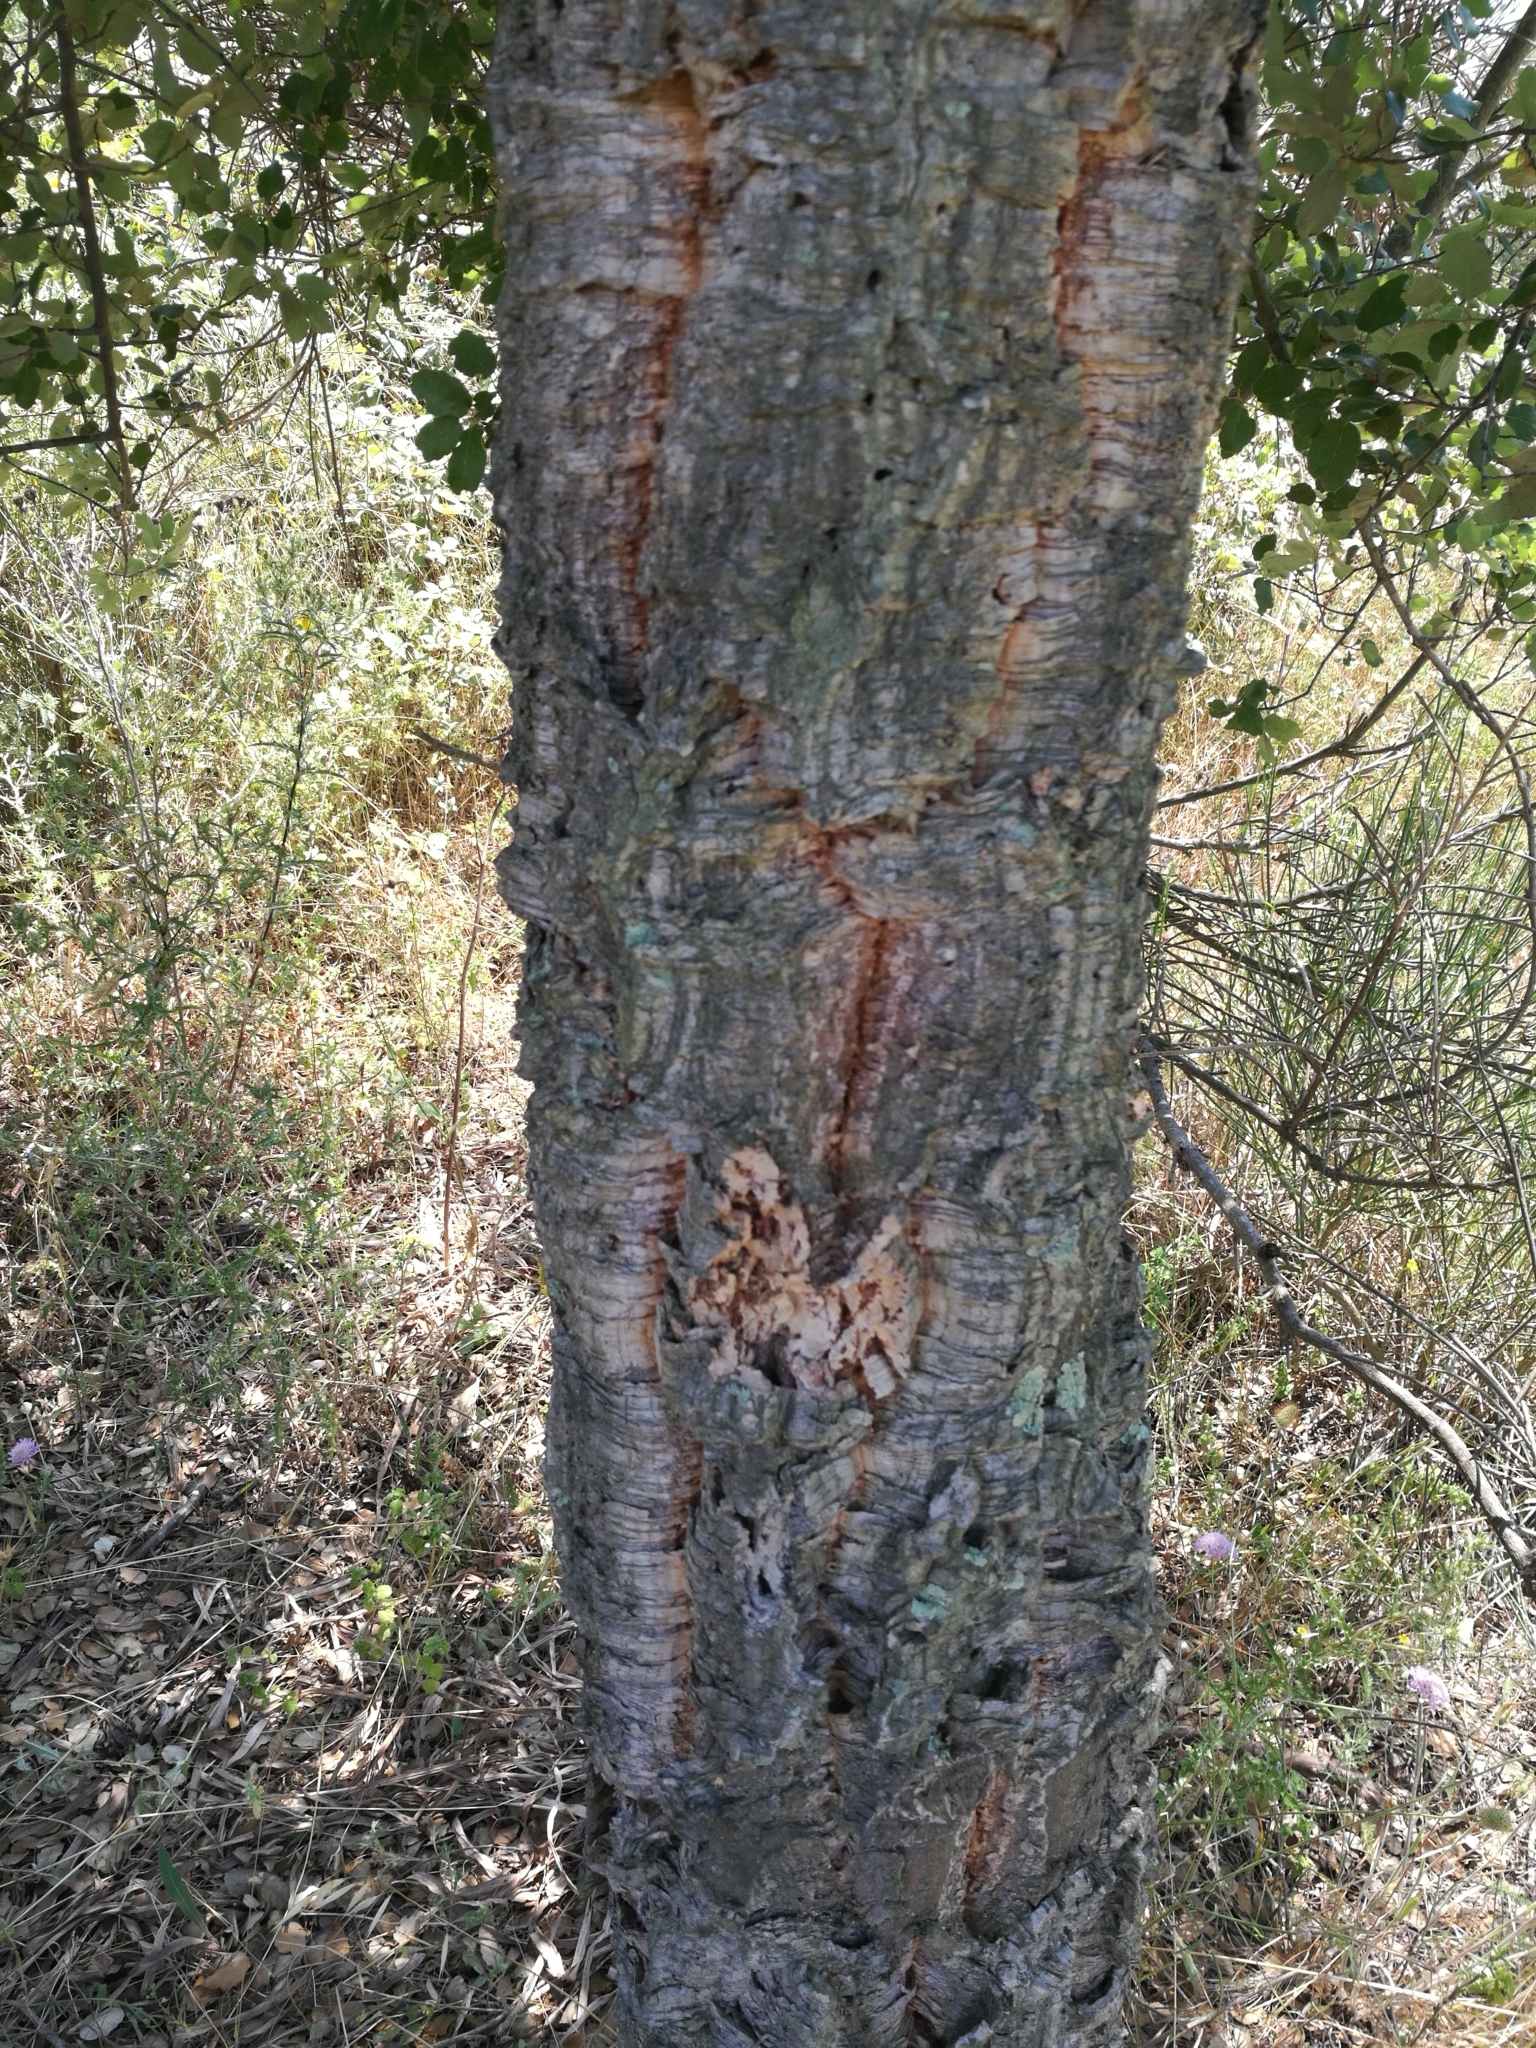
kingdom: Plantae
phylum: Tracheophyta
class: Magnoliopsida
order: Fagales
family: Fagaceae
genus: Quercus
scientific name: Quercus suber
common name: Cork oak
